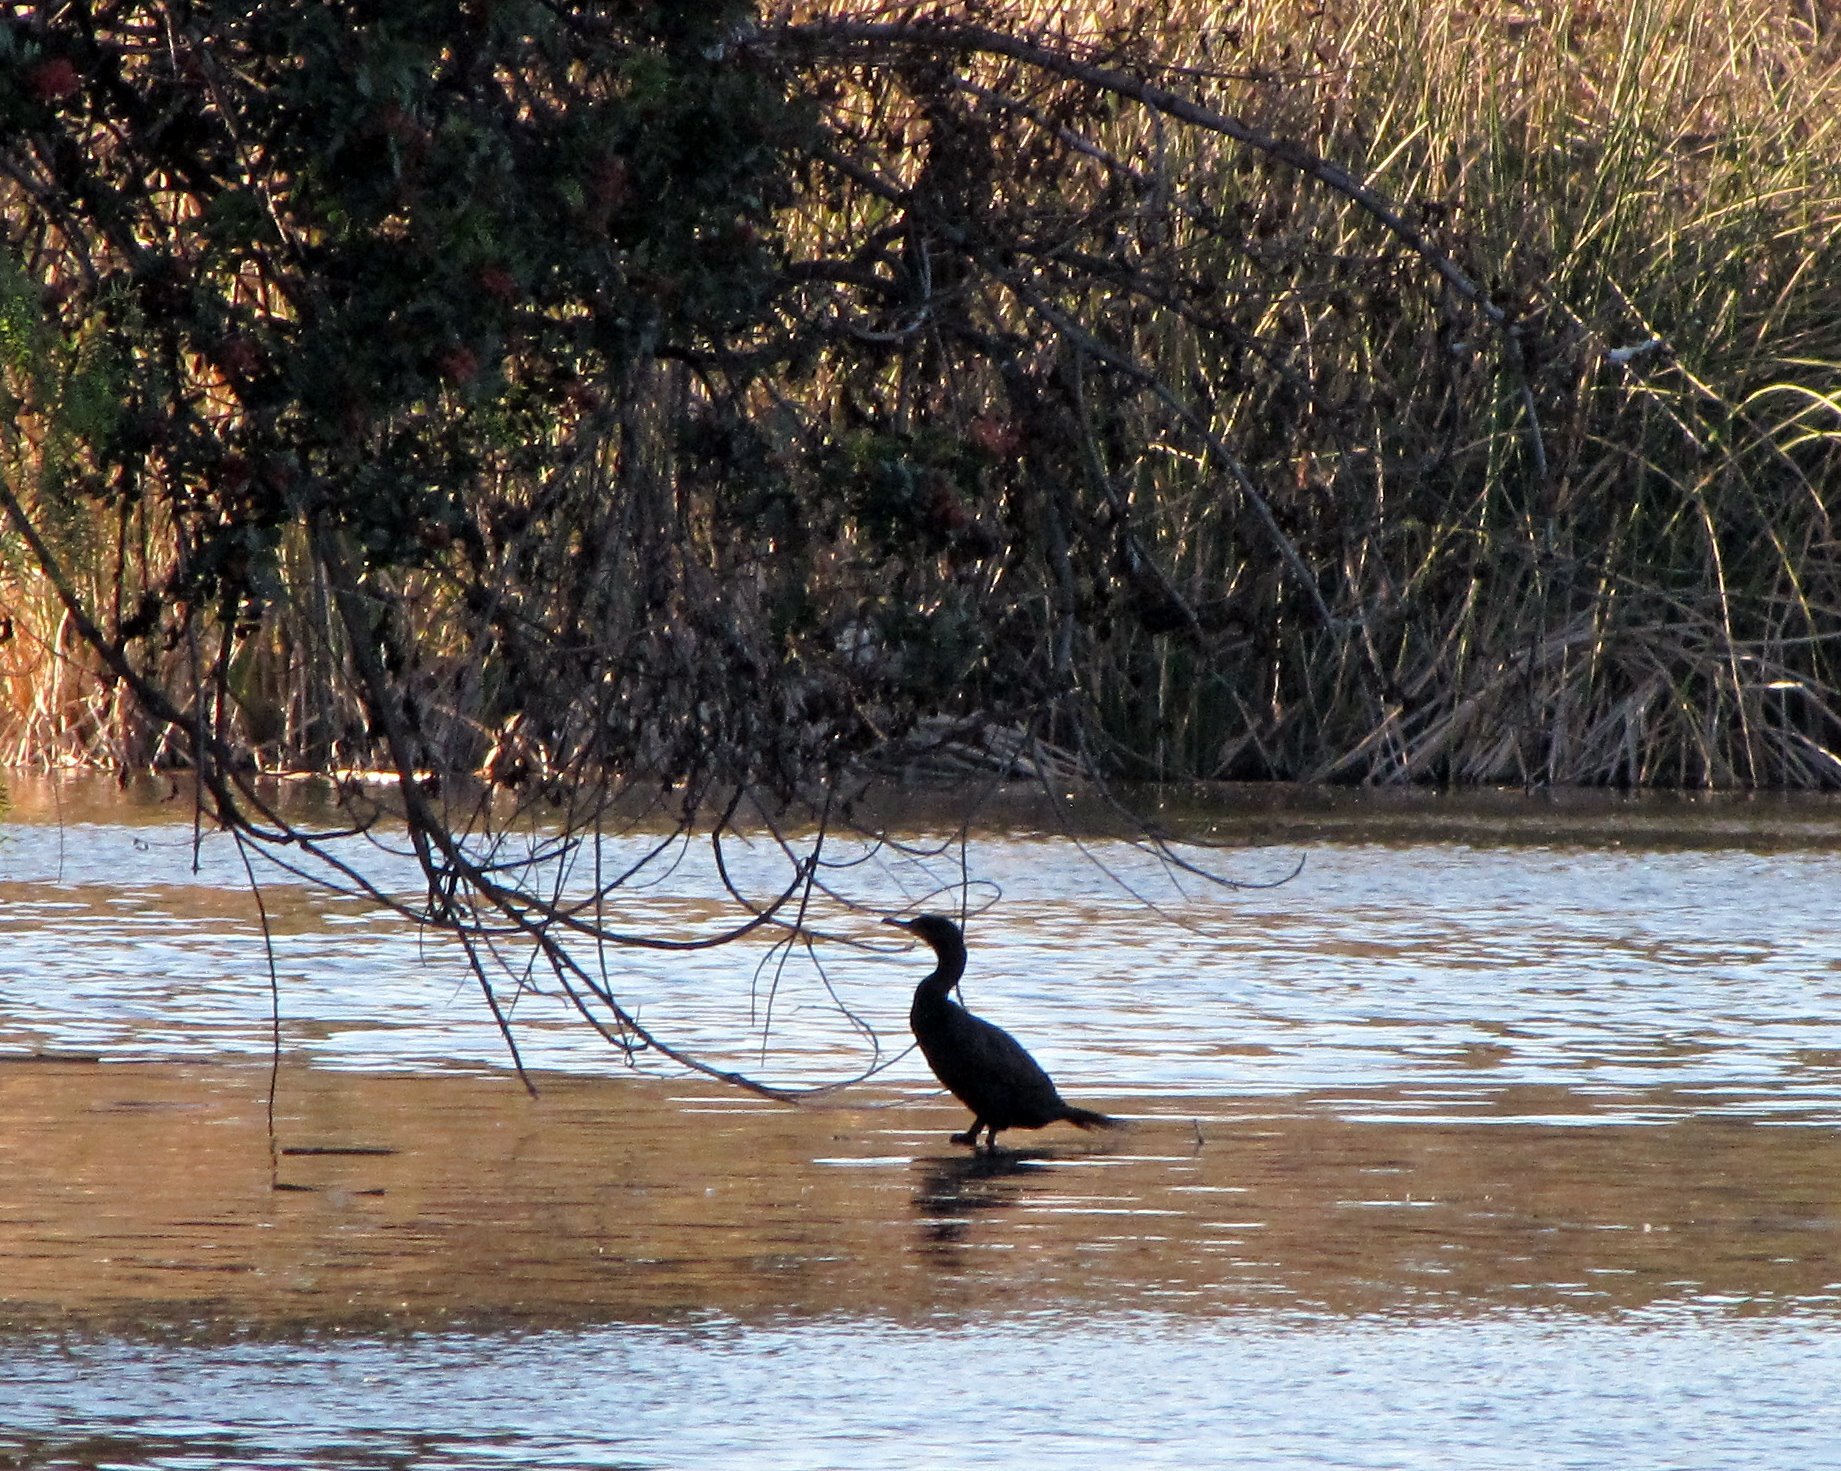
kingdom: Animalia
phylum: Chordata
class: Aves
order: Suliformes
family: Phalacrocoracidae
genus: Phalacrocorax
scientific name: Phalacrocorax auritus
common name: Double-crested cormorant
